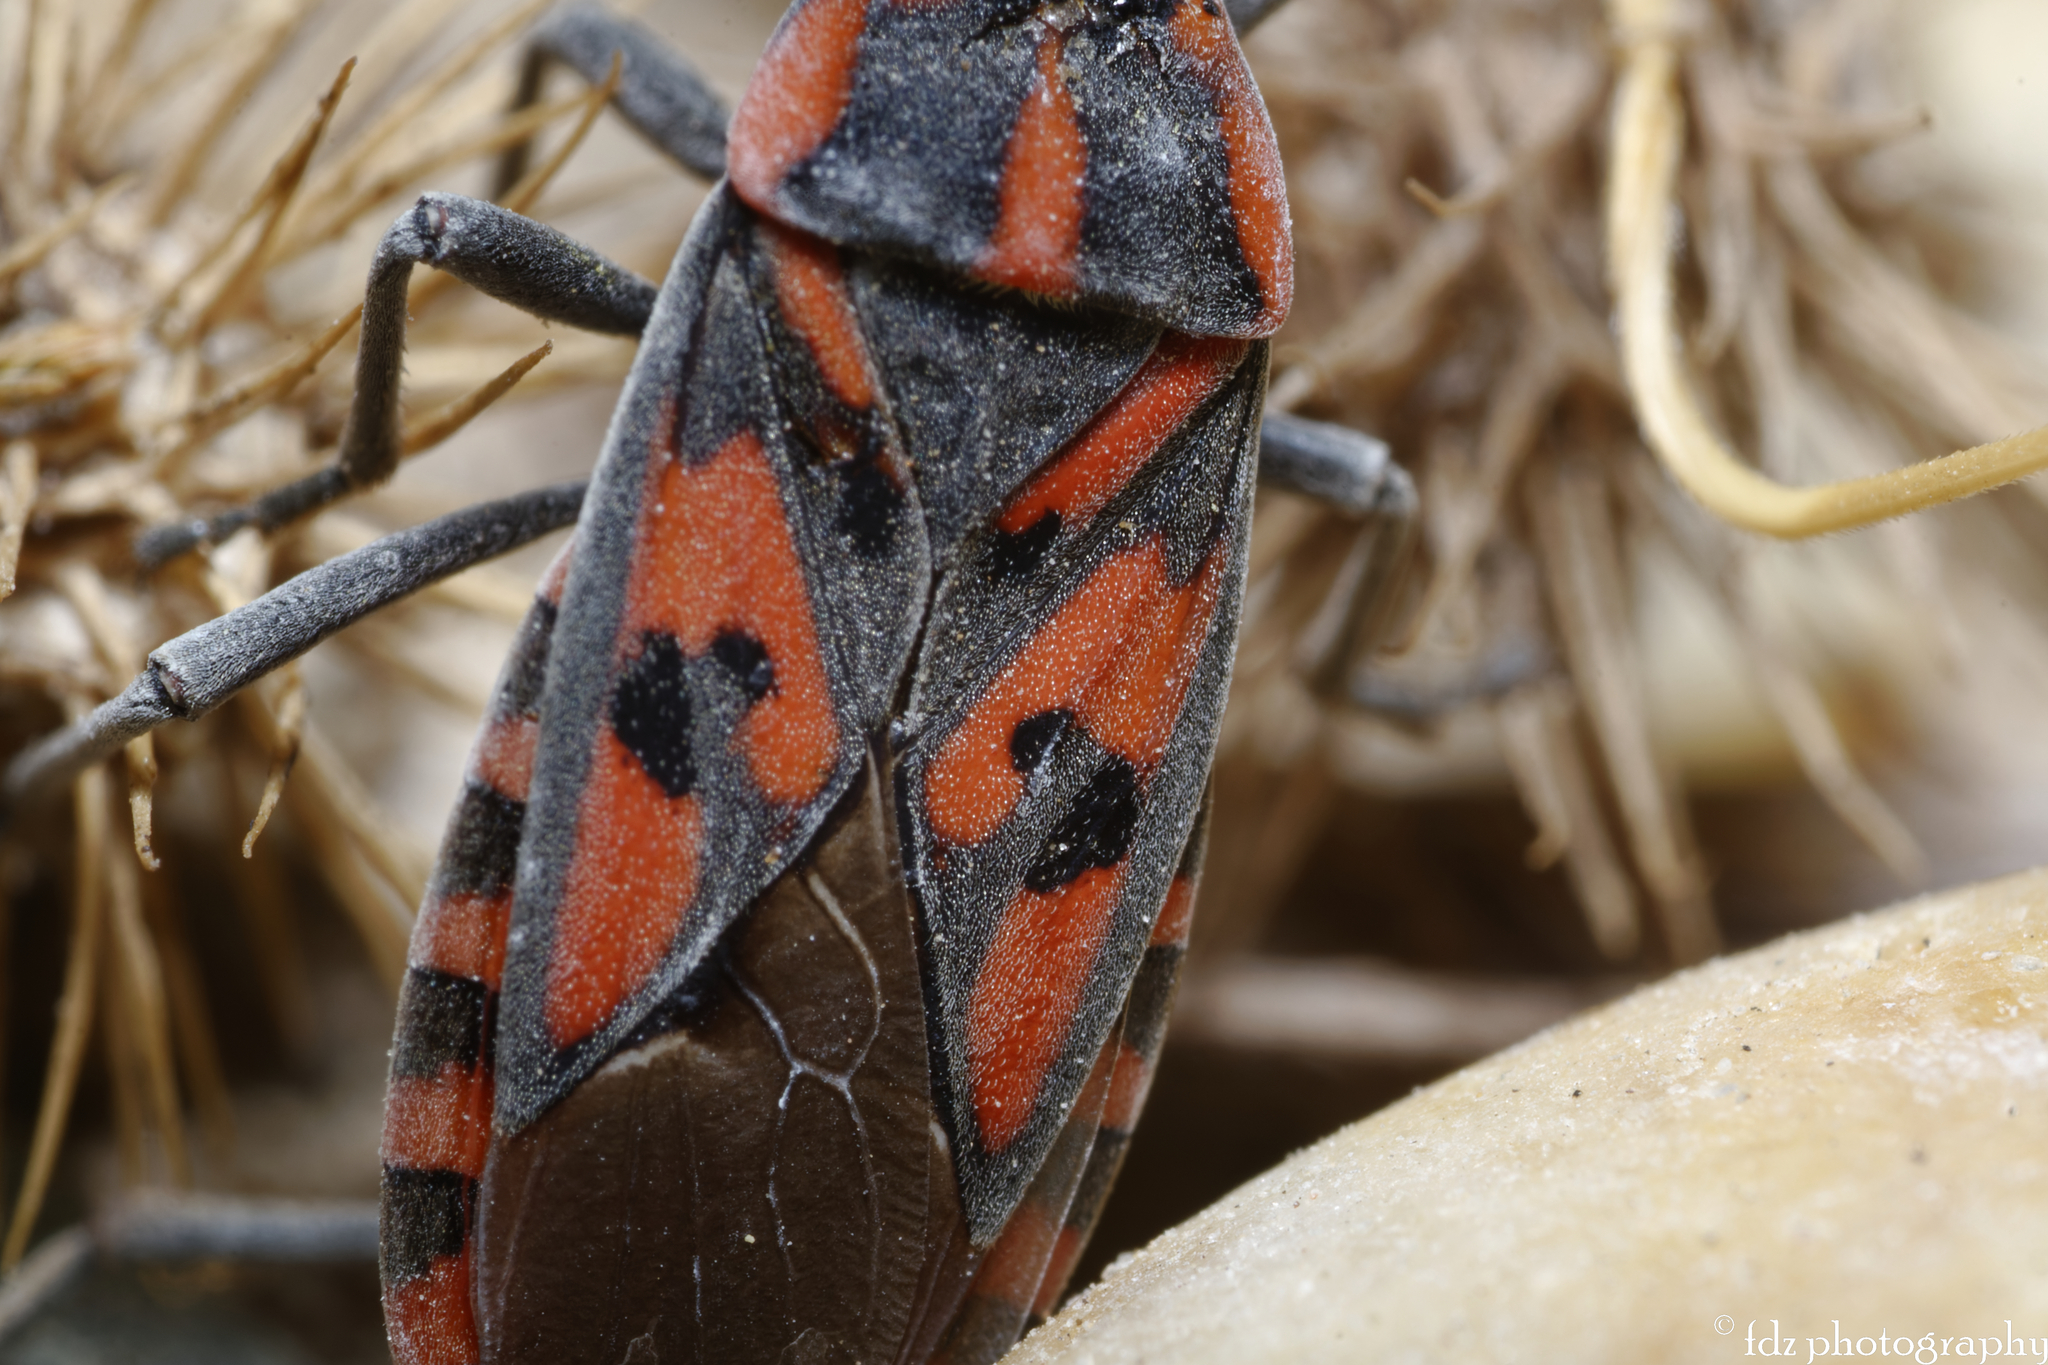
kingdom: Animalia
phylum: Arthropoda
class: Insecta
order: Hemiptera
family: Lygaeidae
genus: Spilostethus
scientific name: Spilostethus saxatilis
